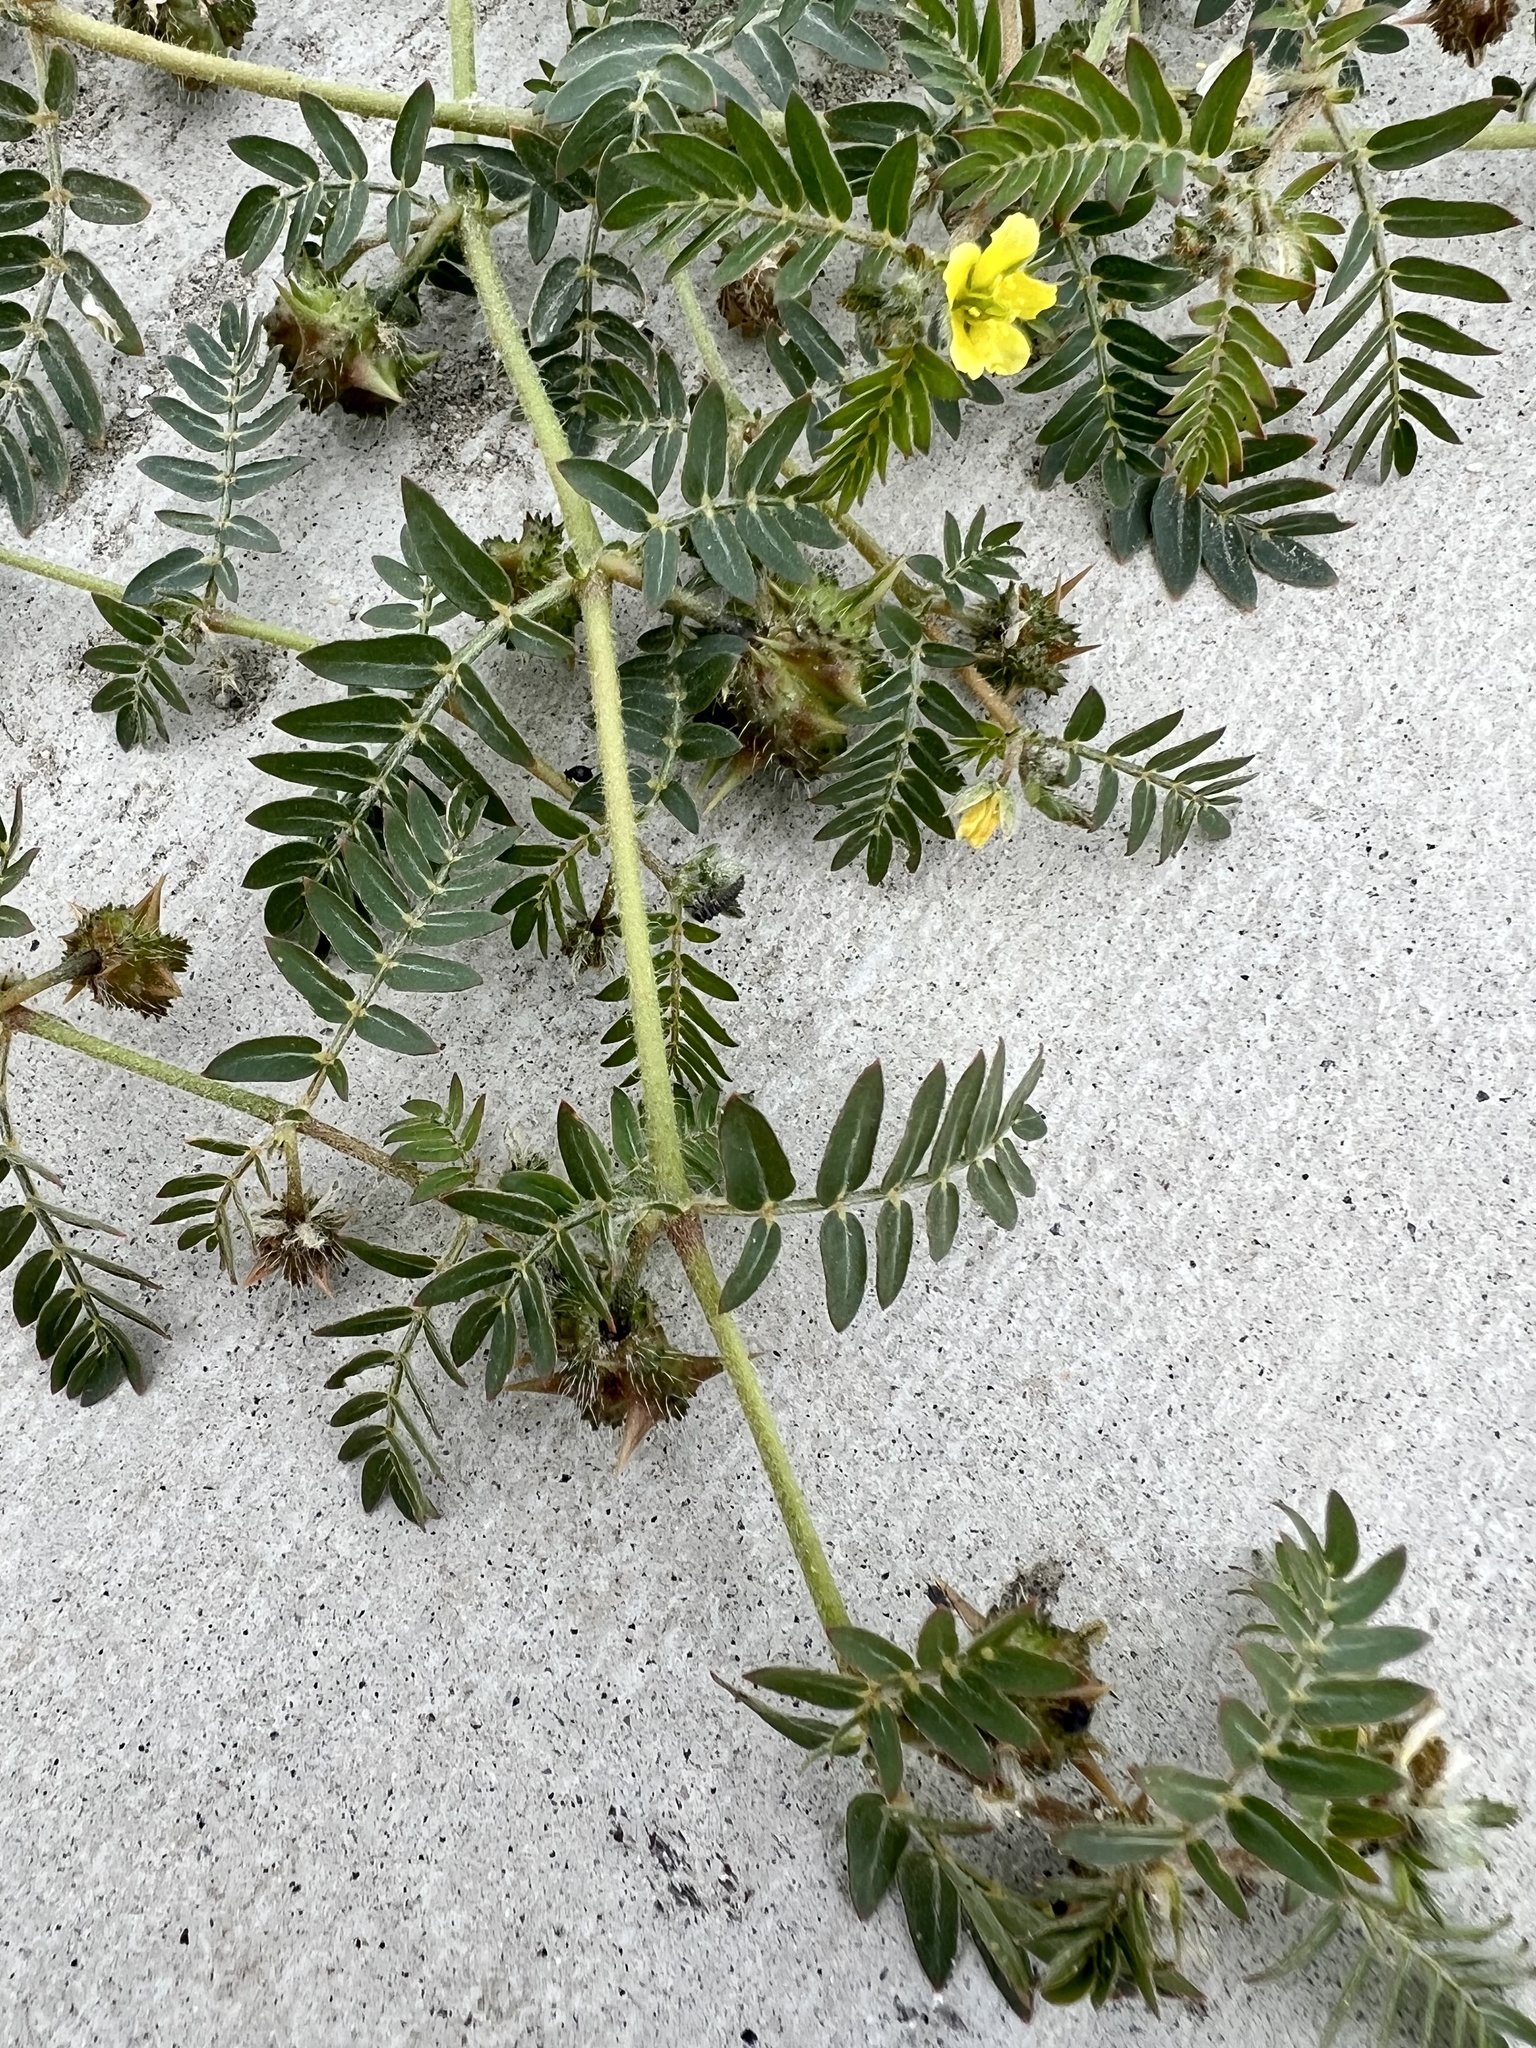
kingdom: Plantae
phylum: Tracheophyta
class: Magnoliopsida
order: Zygophyllales
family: Zygophyllaceae
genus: Tribulus
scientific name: Tribulus terrestris
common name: Puncturevine
